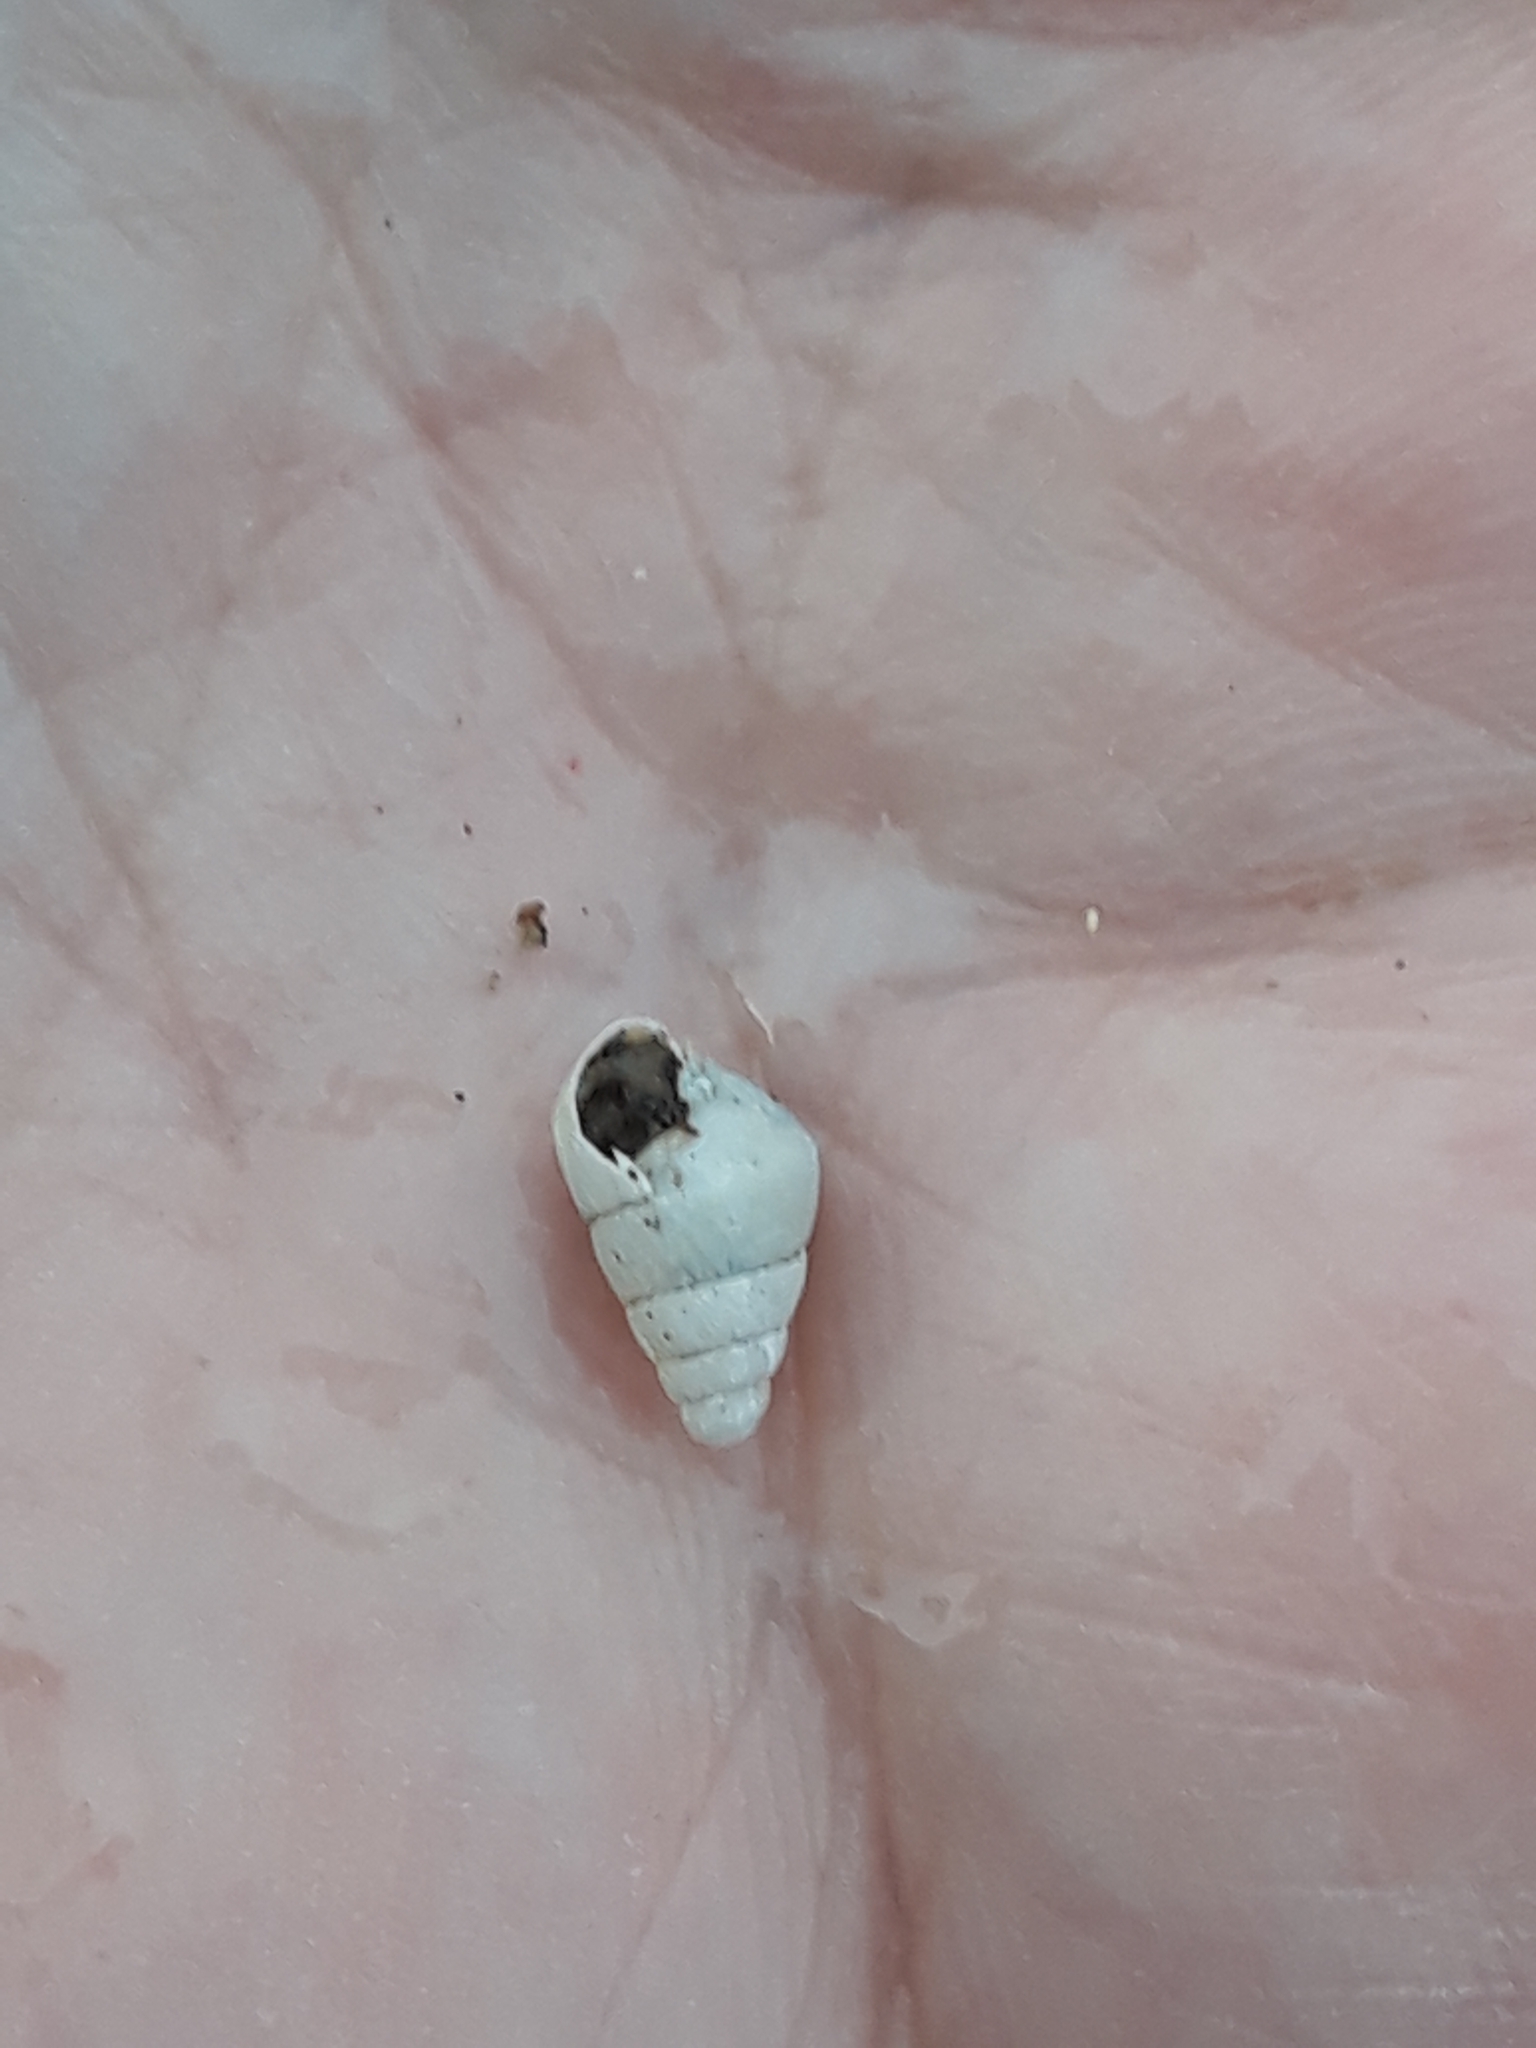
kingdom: Animalia
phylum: Mollusca
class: Gastropoda
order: Stylommatophora
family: Enidae
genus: Mastus
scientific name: Mastus pupa
